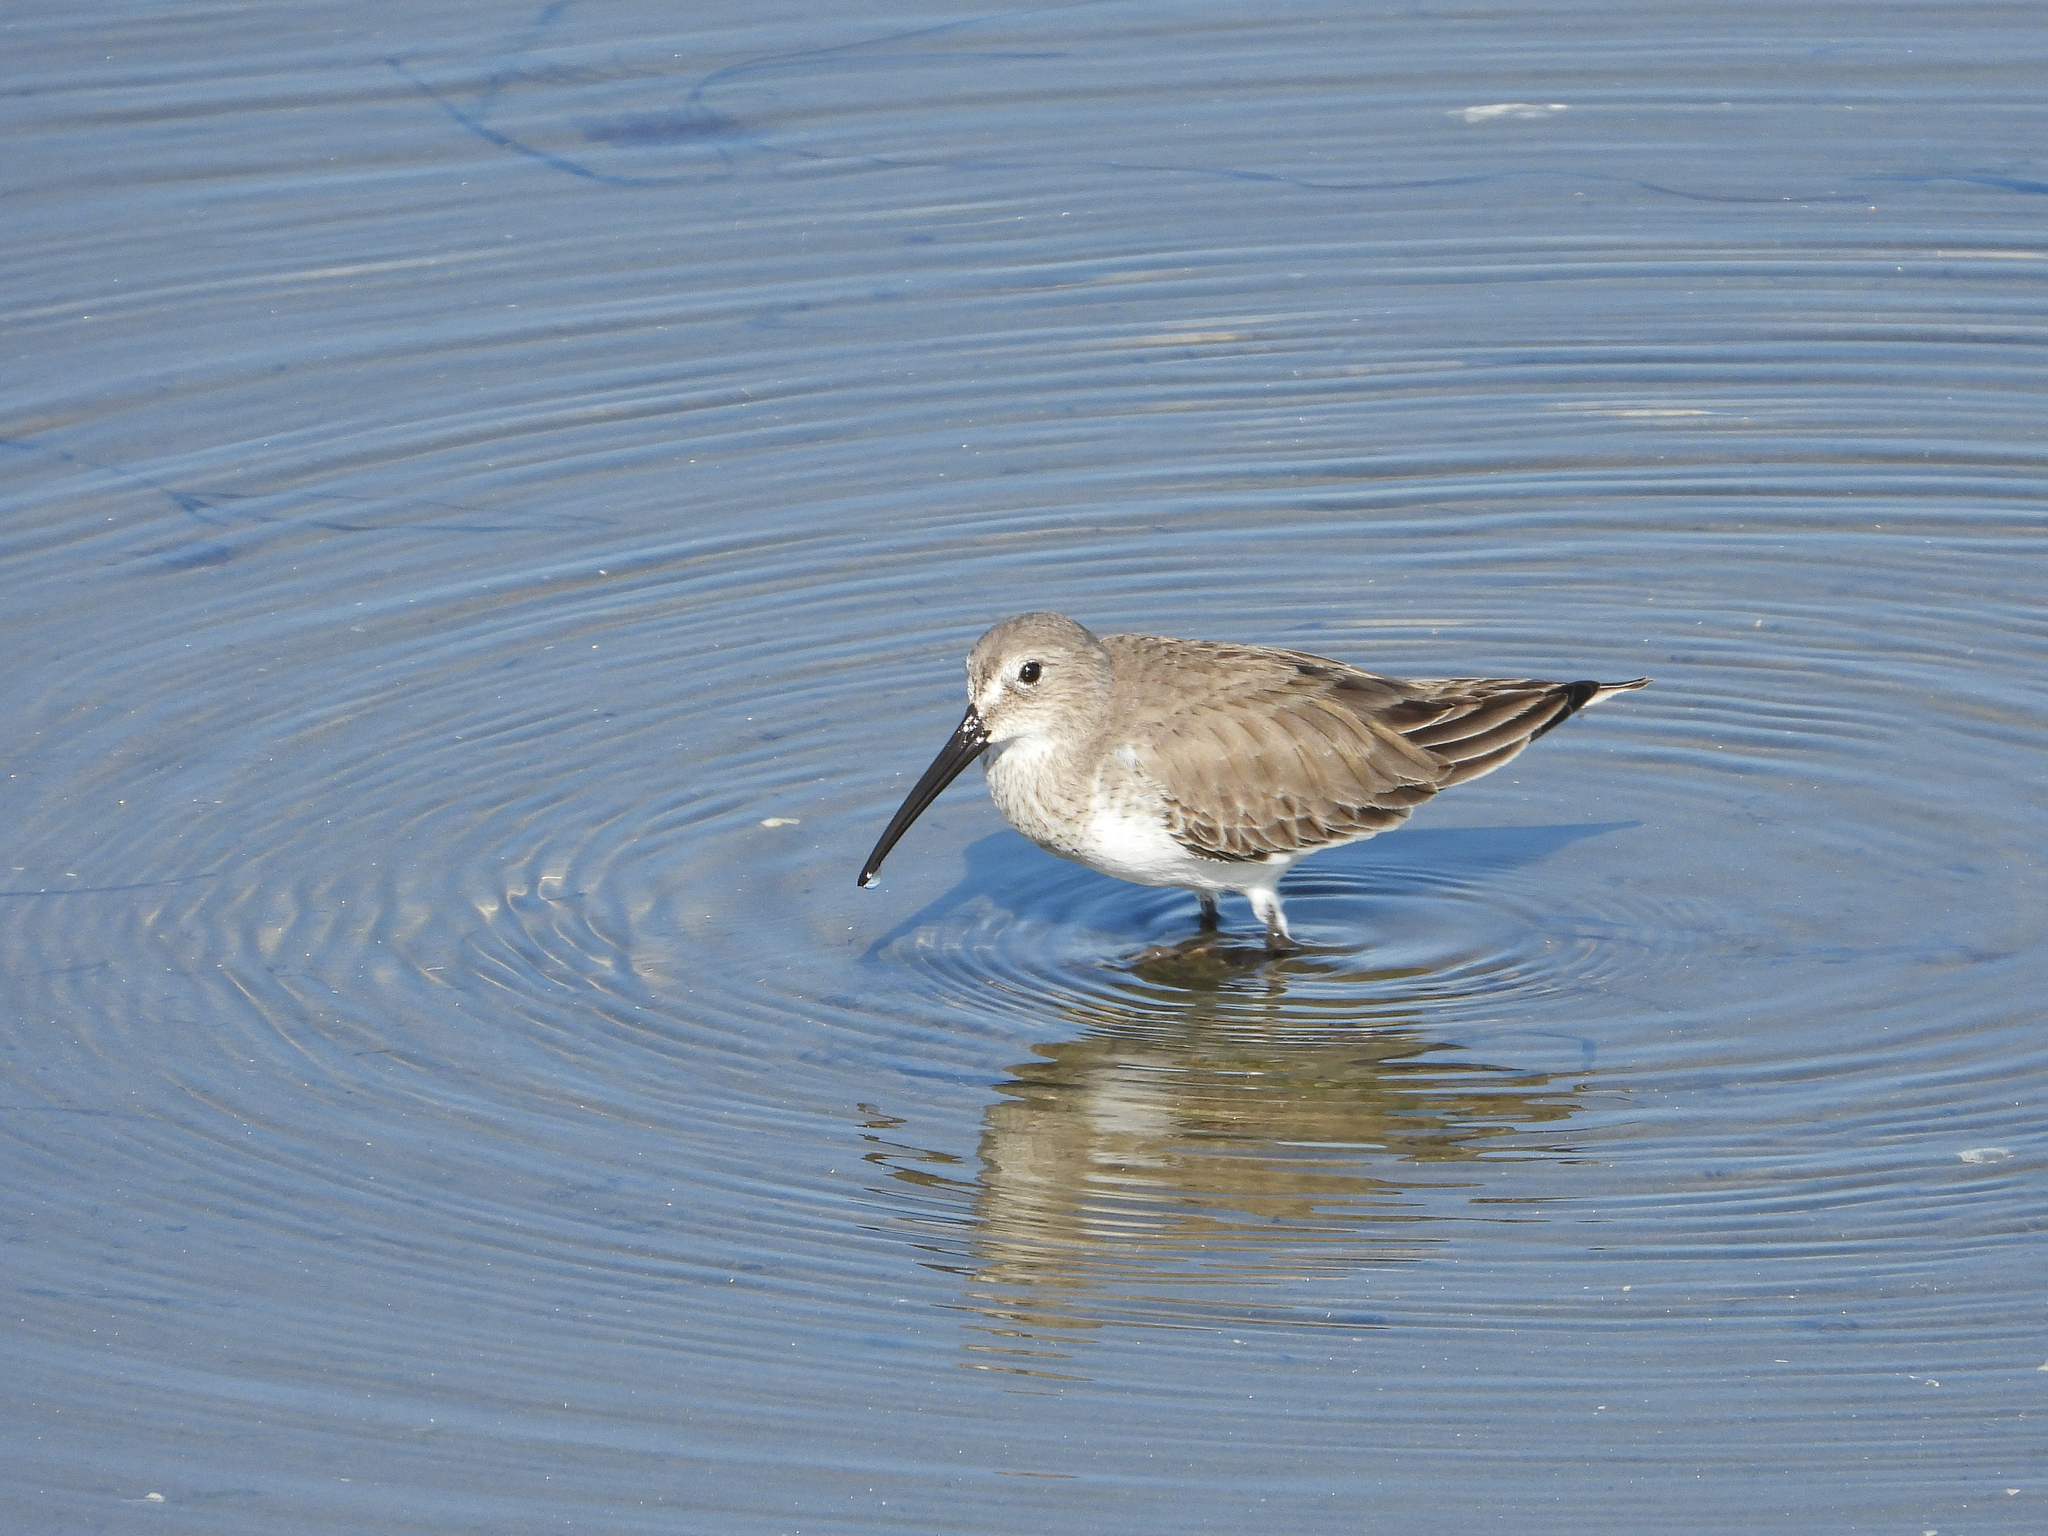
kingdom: Animalia
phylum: Chordata
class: Aves
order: Charadriiformes
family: Scolopacidae
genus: Calidris
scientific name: Calidris alpina
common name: Dunlin
